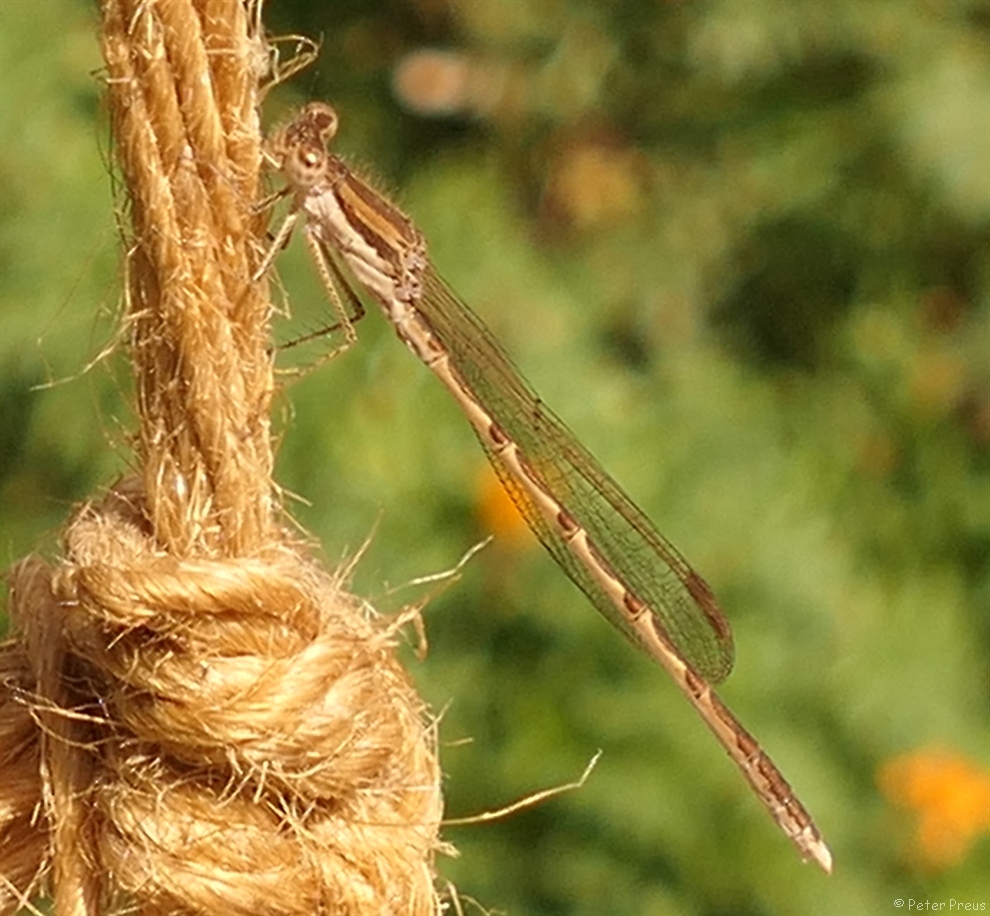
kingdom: Animalia
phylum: Arthropoda
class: Insecta
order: Odonata
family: Lestidae
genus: Sympecma
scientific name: Sympecma fusca
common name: Common winter damsel
